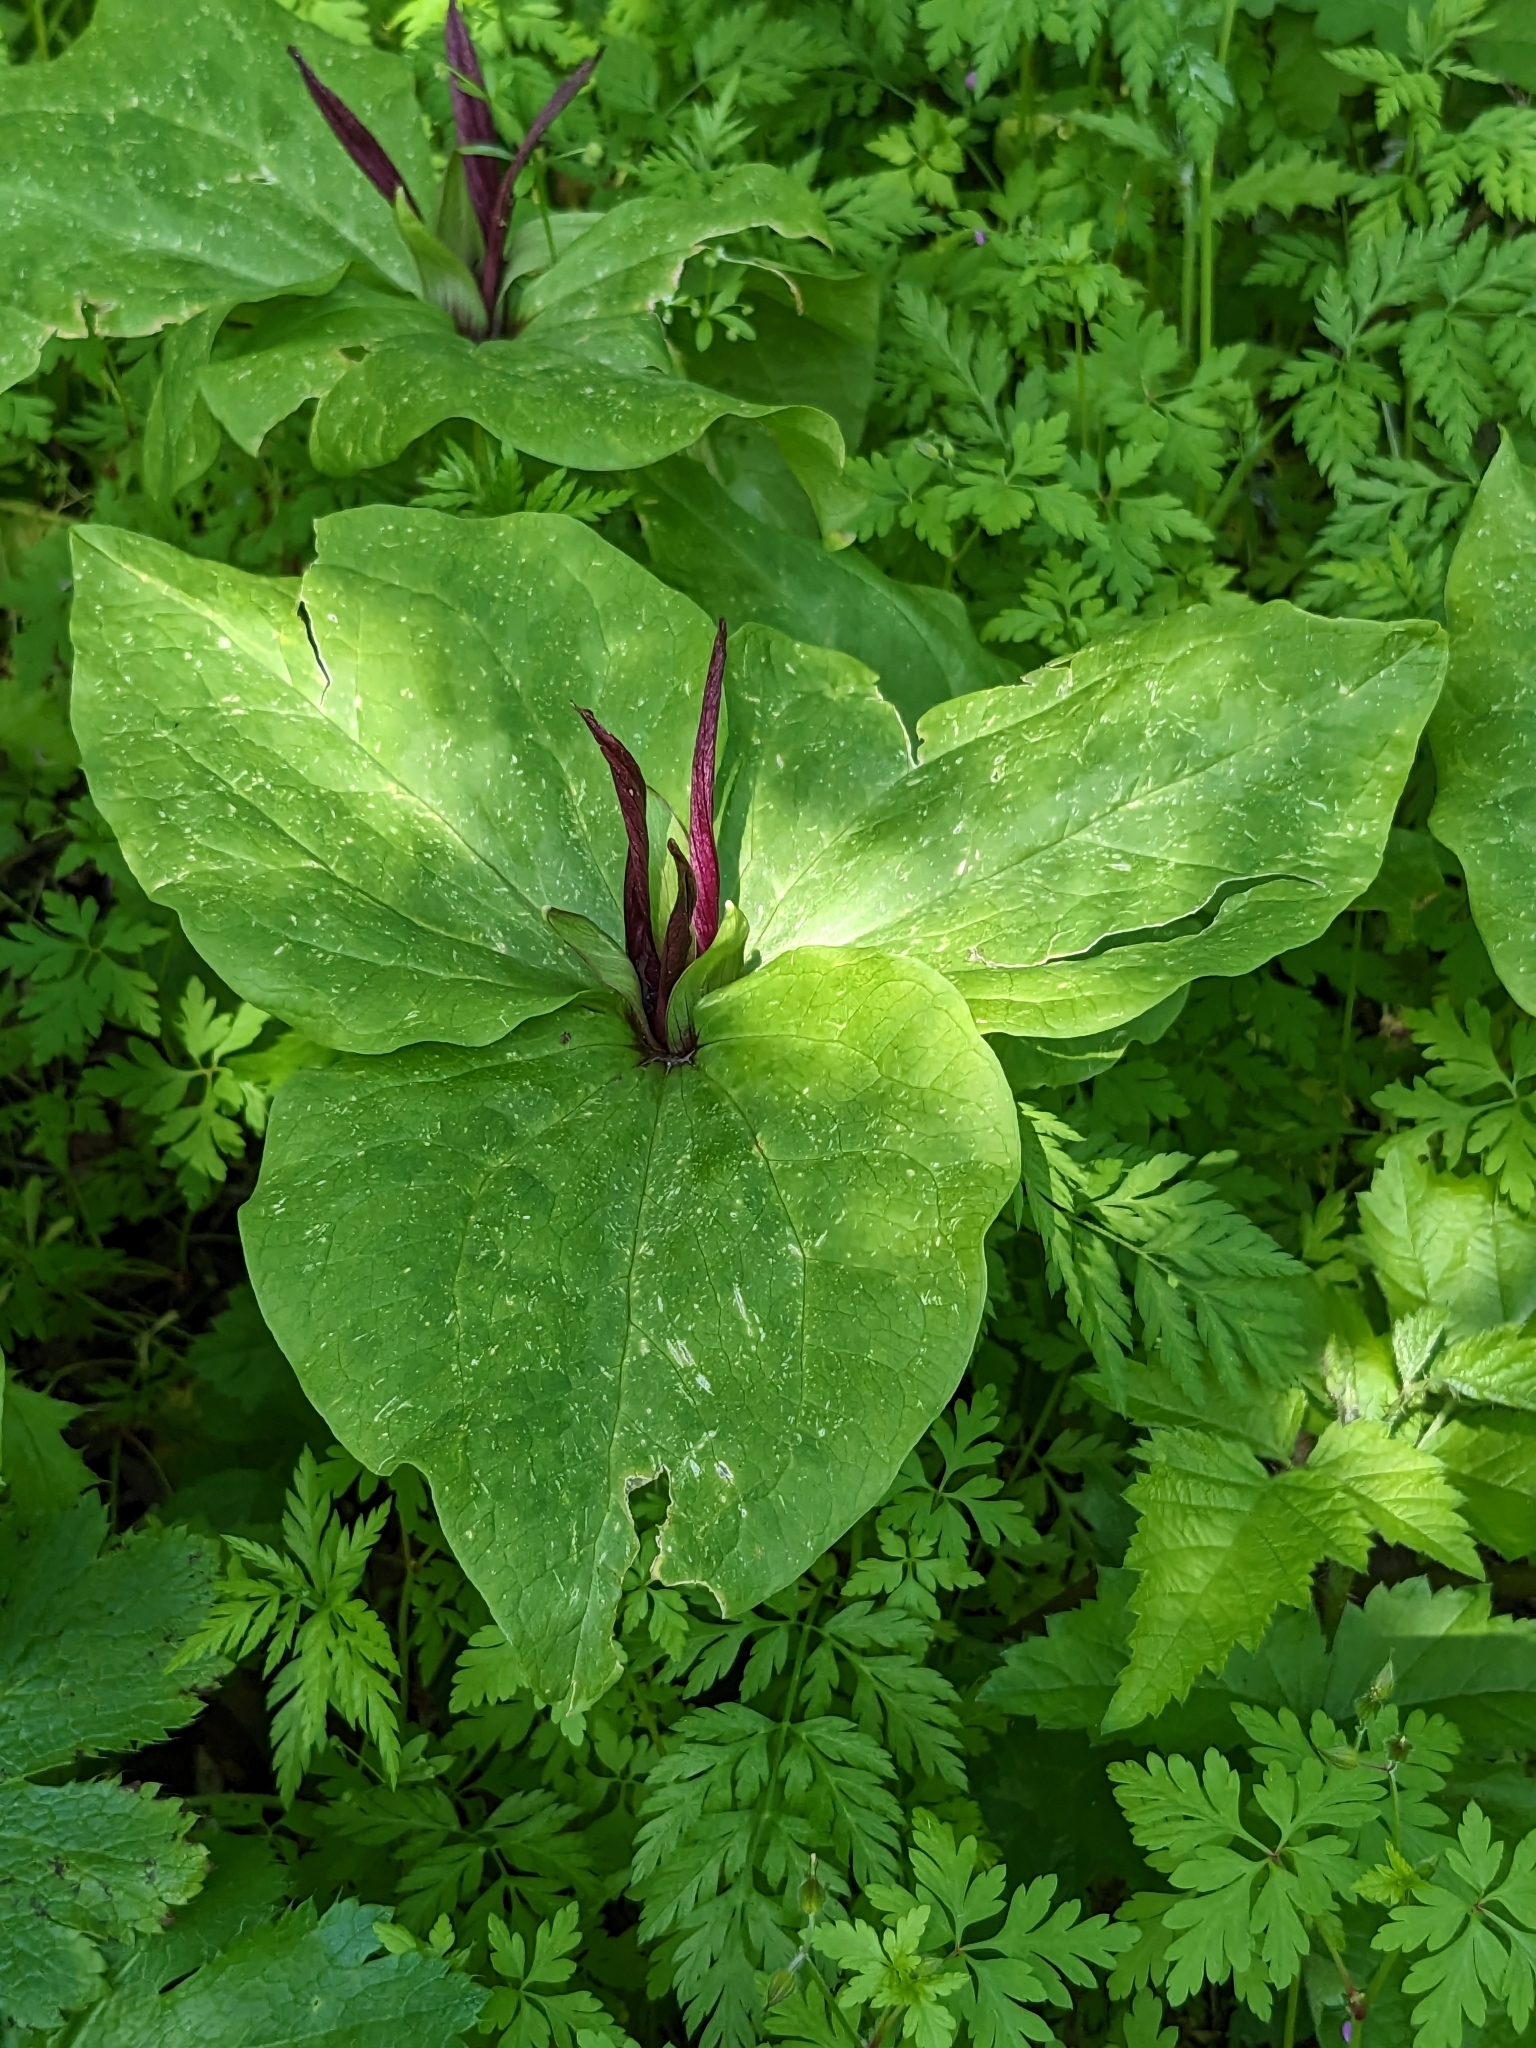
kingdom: Plantae
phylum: Tracheophyta
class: Liliopsida
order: Liliales
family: Melanthiaceae
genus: Trillium
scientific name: Trillium chloropetalum
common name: Giant trillium
